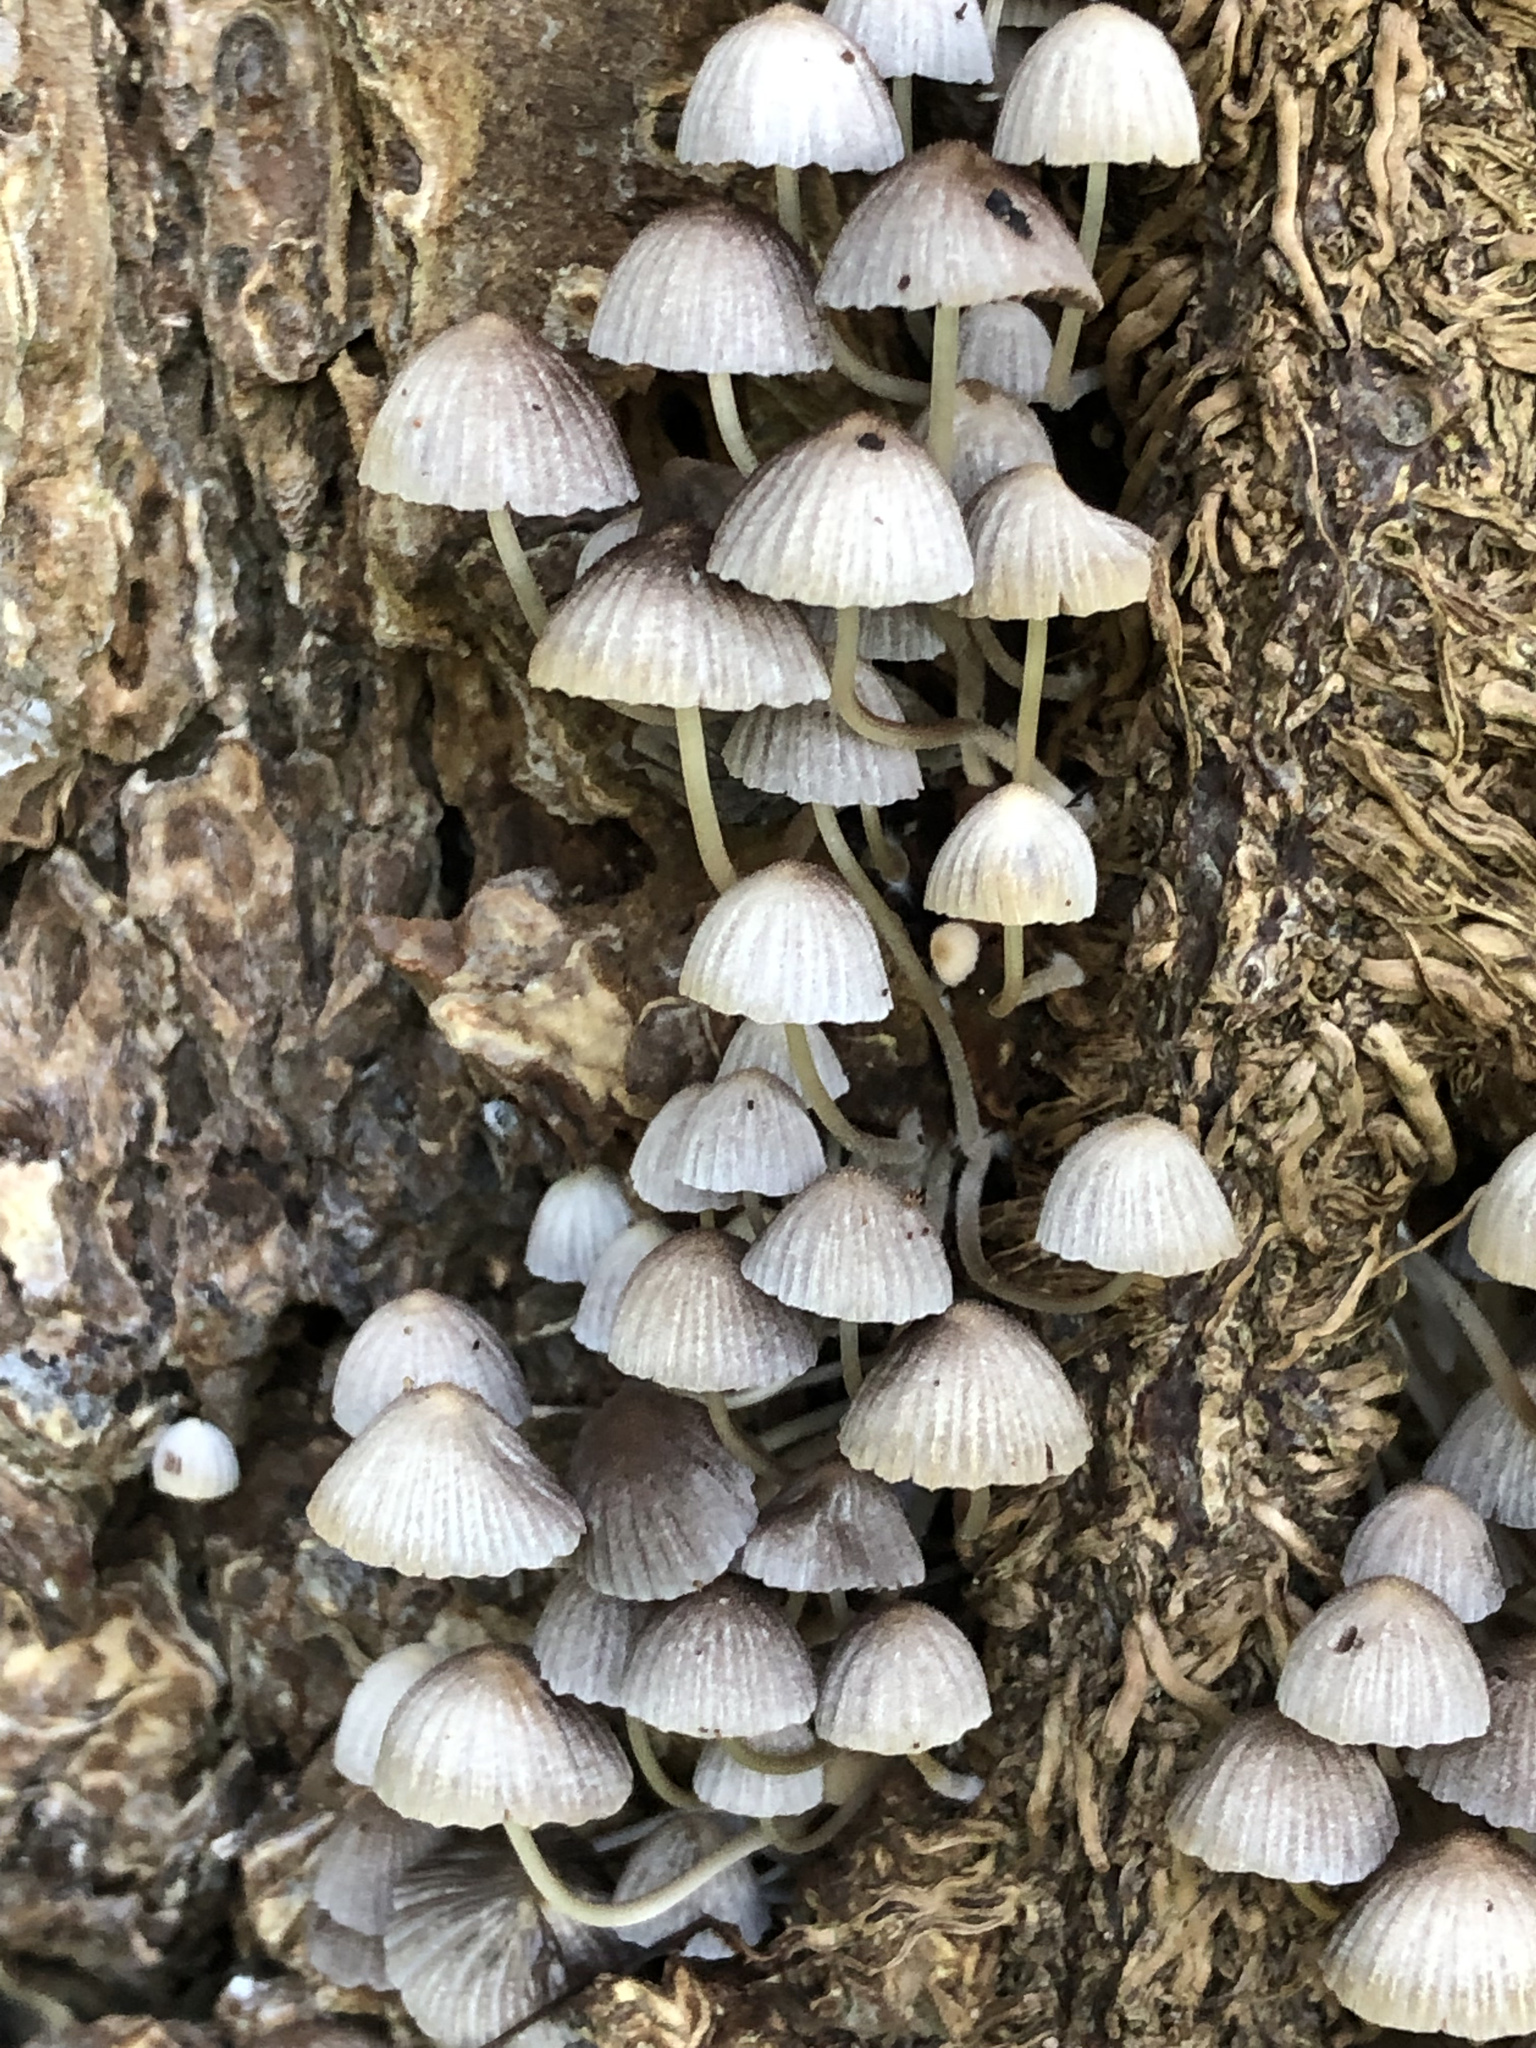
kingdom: Fungi
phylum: Basidiomycota
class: Agaricomycetes
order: Agaricales
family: Psathyrellaceae
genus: Coprinellus
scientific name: Coprinellus disseminatus
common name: Fairies' bonnets
